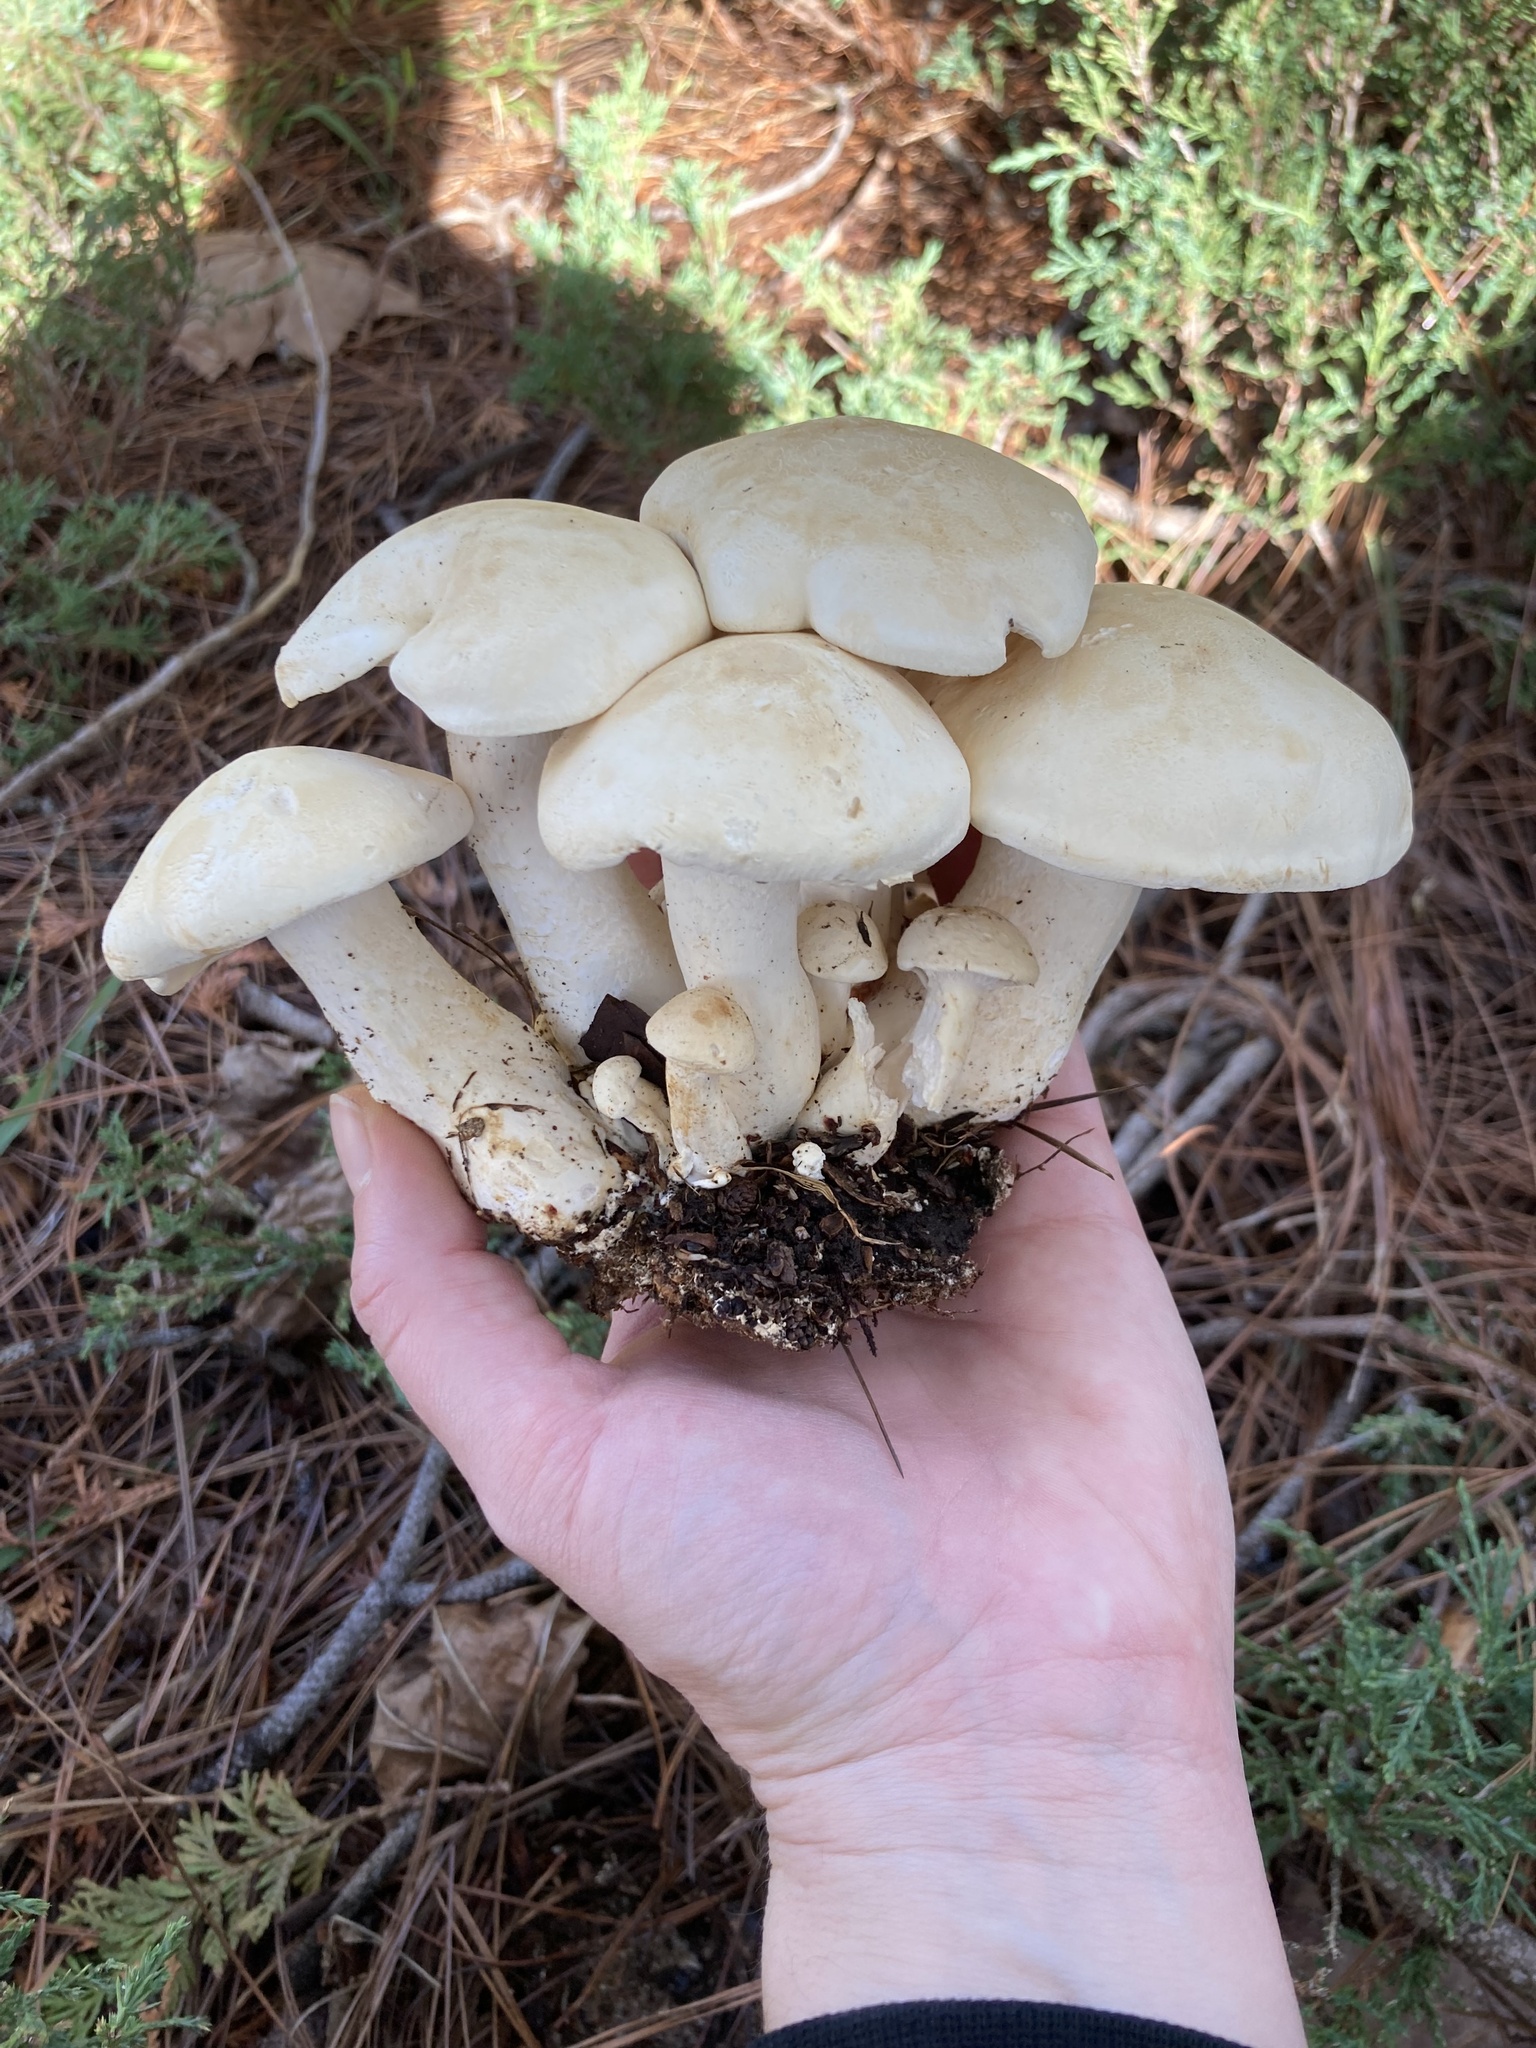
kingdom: Fungi
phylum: Basidiomycota
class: Agaricomycetes
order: Agaricales
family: Tricholomataceae
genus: Leucopaxillus
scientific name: Leucopaxillus albissimus
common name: Large white leucopax
